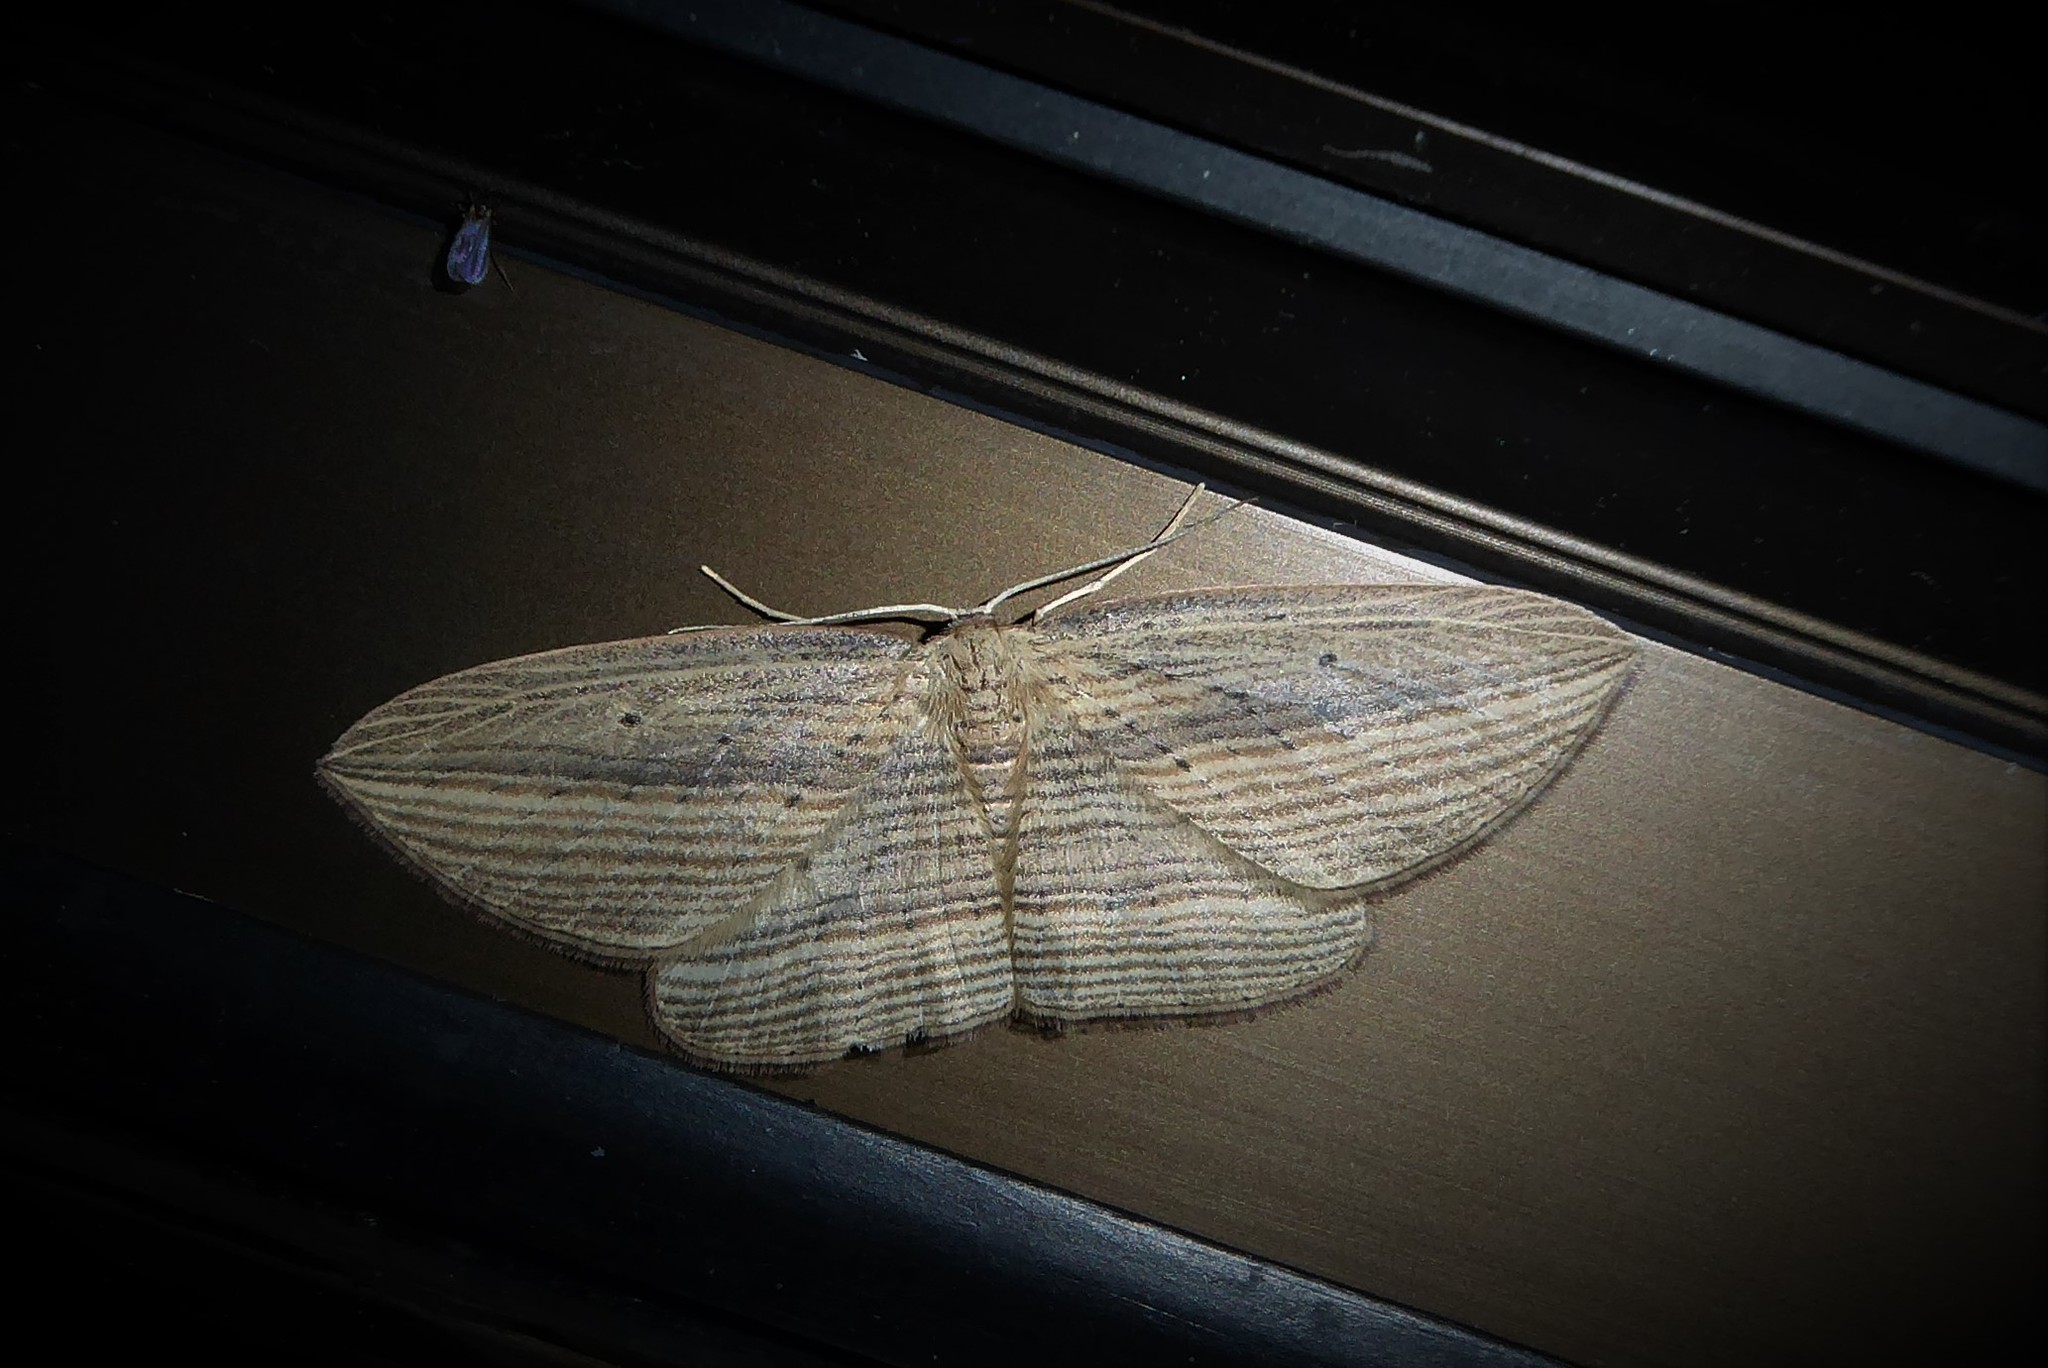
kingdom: Animalia
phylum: Arthropoda
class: Insecta
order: Lepidoptera
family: Geometridae
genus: Epiphryne
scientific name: Epiphryne verriculata
